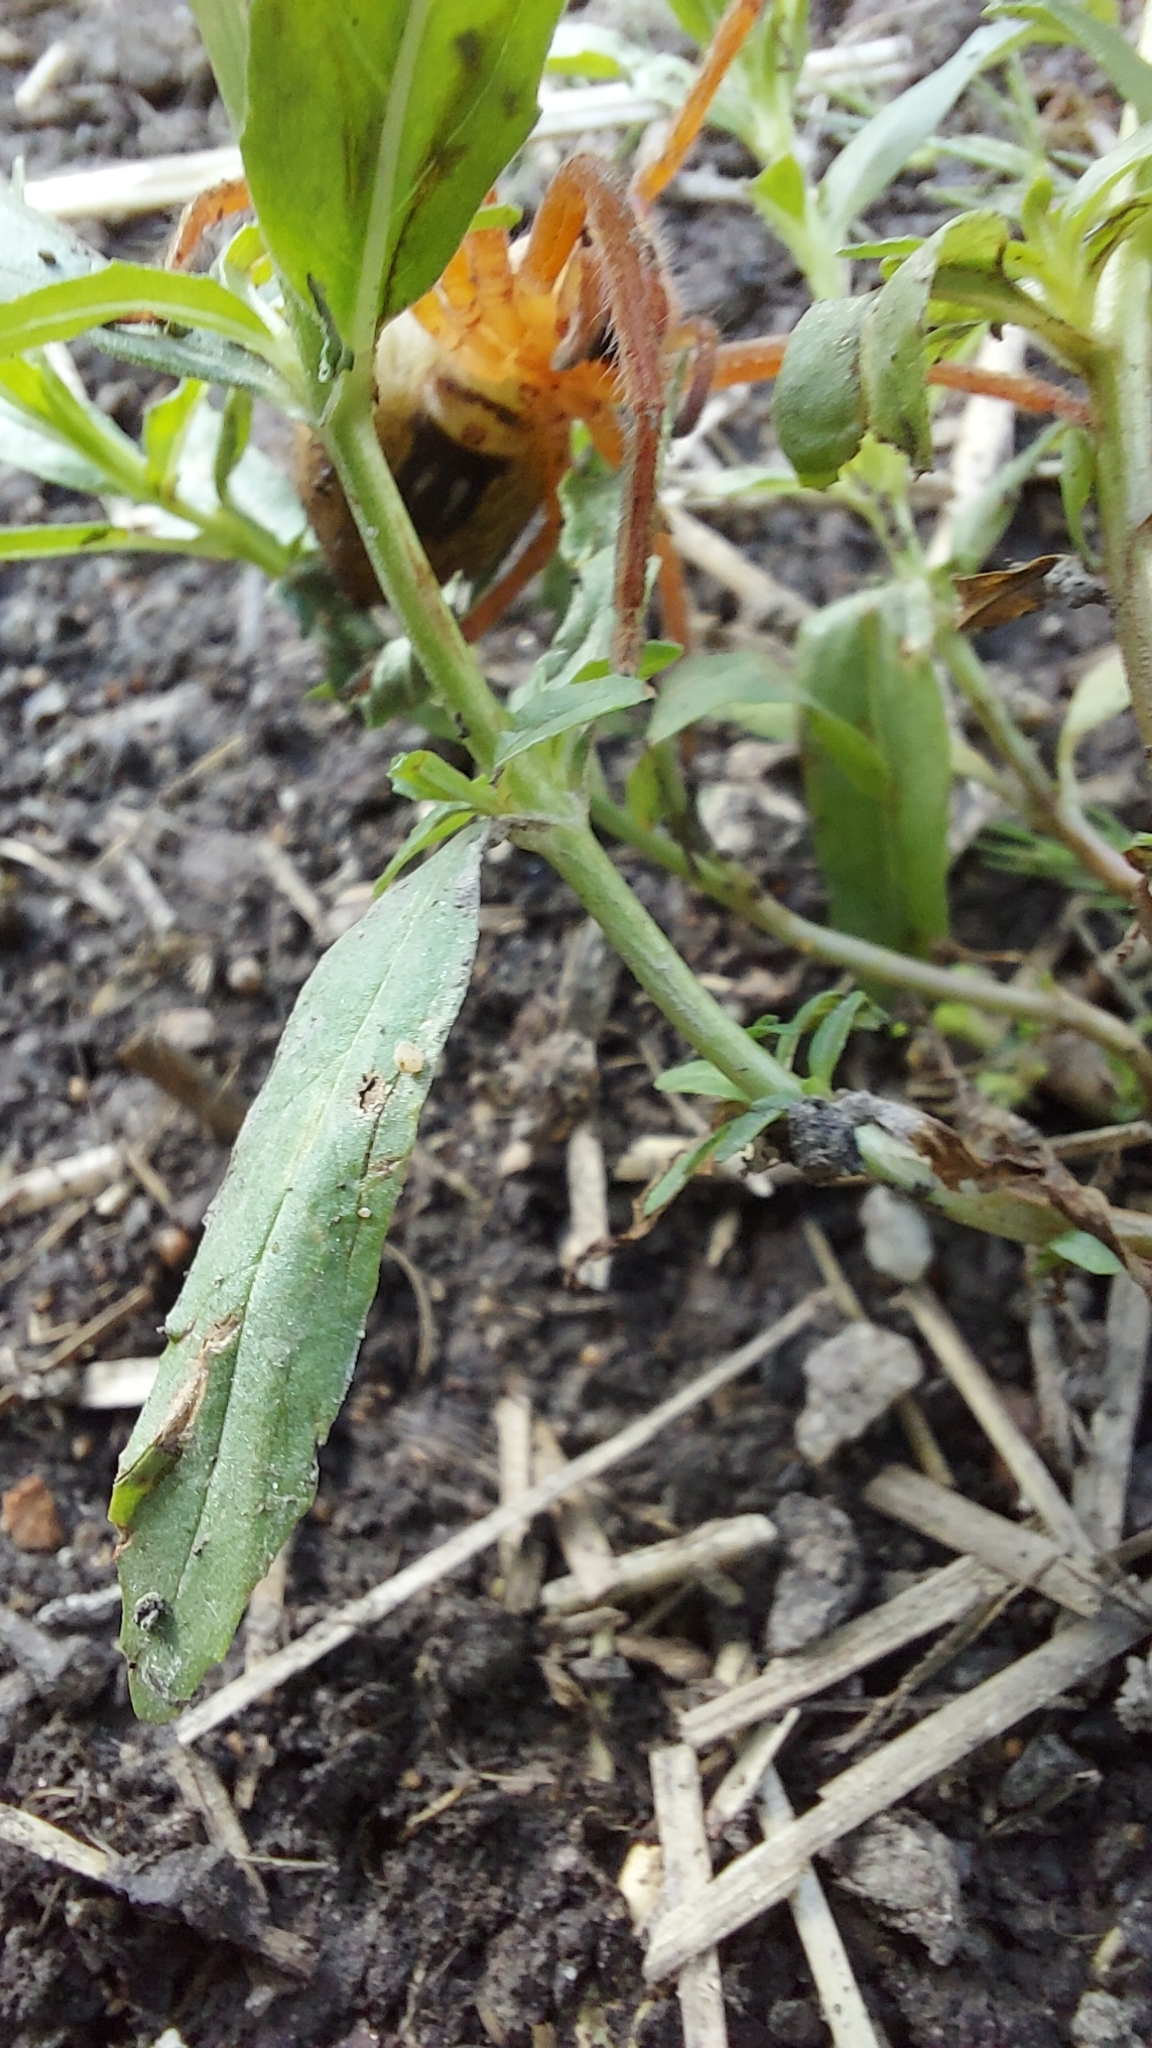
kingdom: Animalia
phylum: Arthropoda
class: Arachnida
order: Araneae
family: Sparassidae
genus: Neosparassus
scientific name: Neosparassus diana
